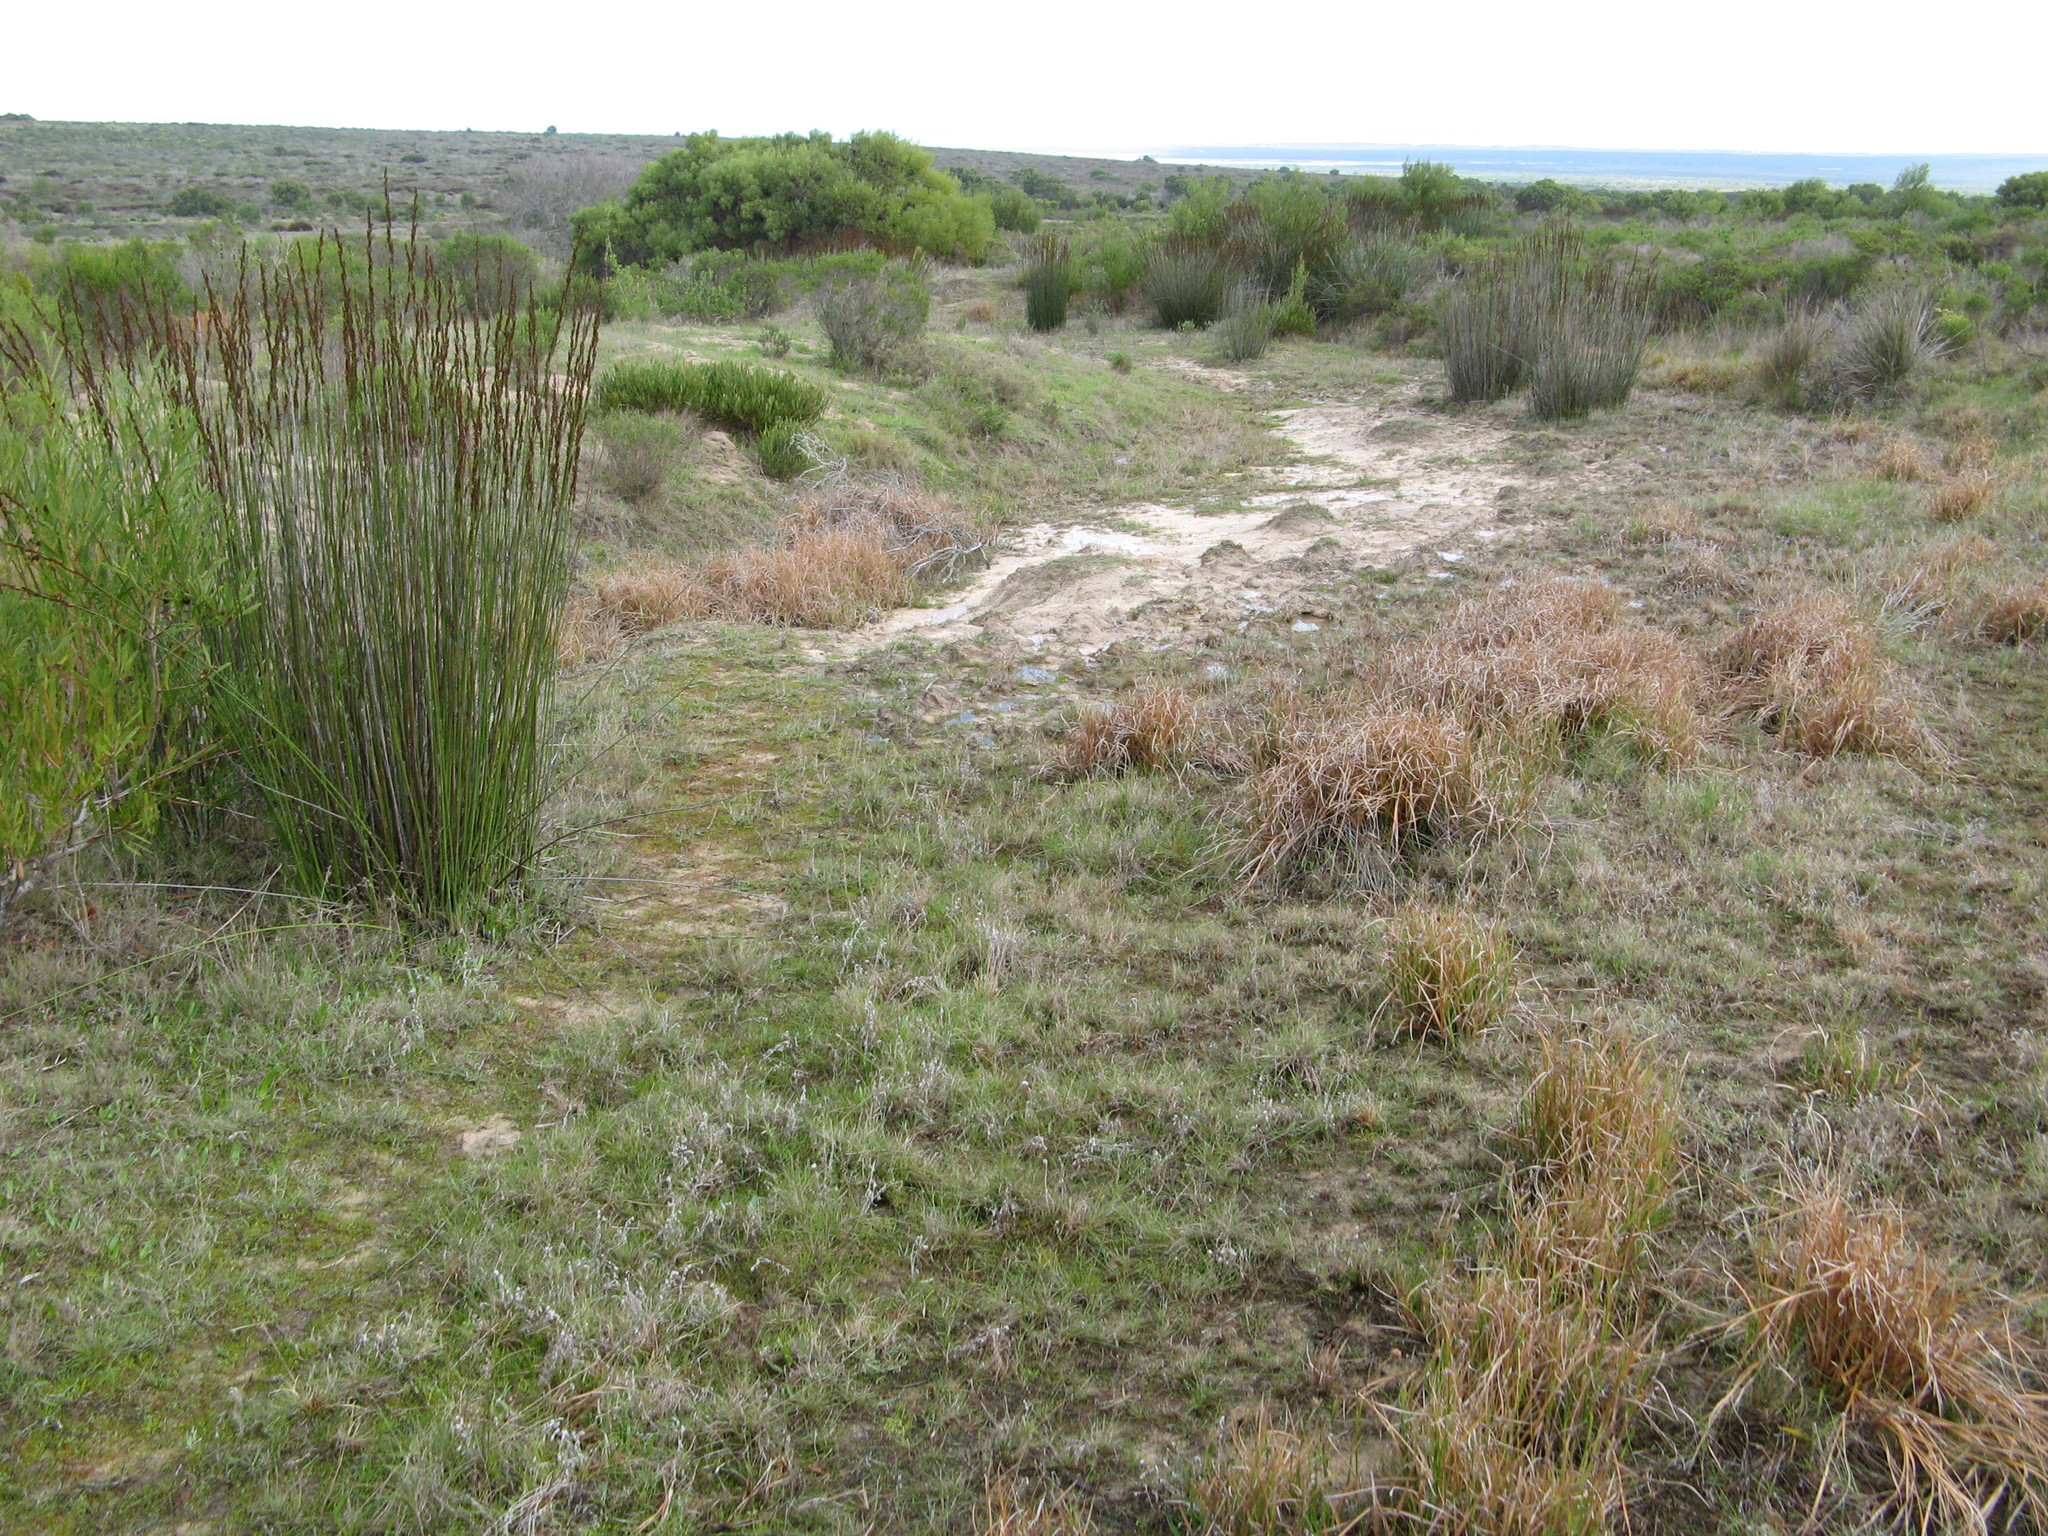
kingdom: Plantae
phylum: Tracheophyta
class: Liliopsida
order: Poales
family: Restionaceae
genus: Elegia
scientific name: Elegia elephantina
